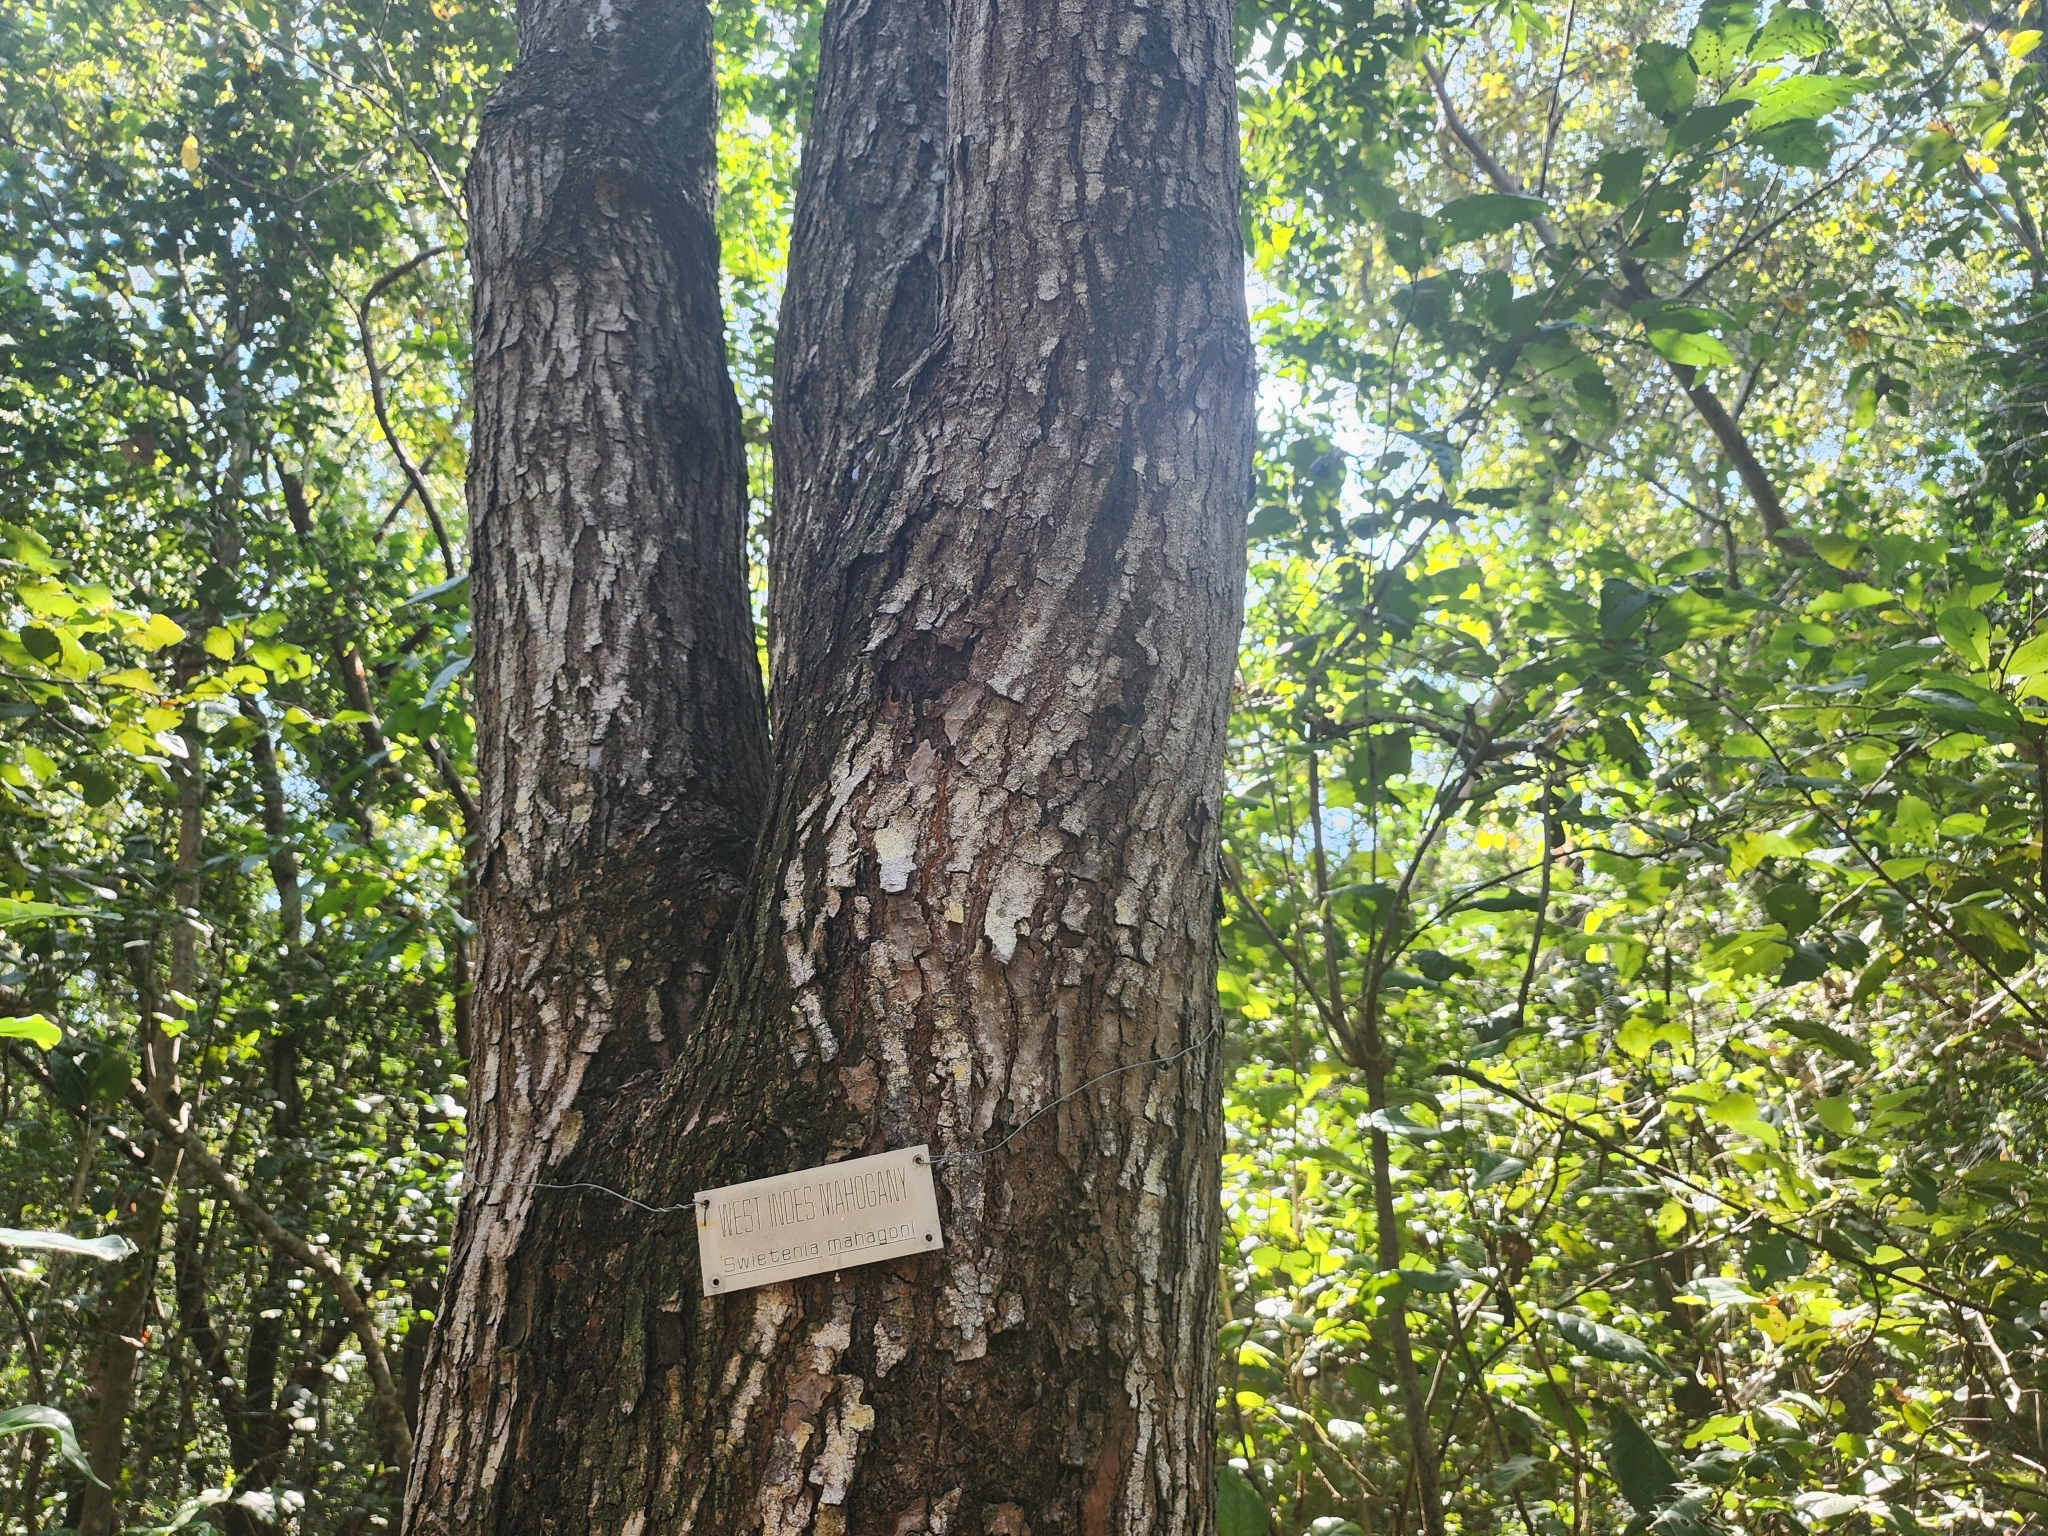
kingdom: Plantae
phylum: Tracheophyta
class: Magnoliopsida
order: Sapindales
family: Meliaceae
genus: Swietenia
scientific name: Swietenia mahagoni
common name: West indian mahogany
